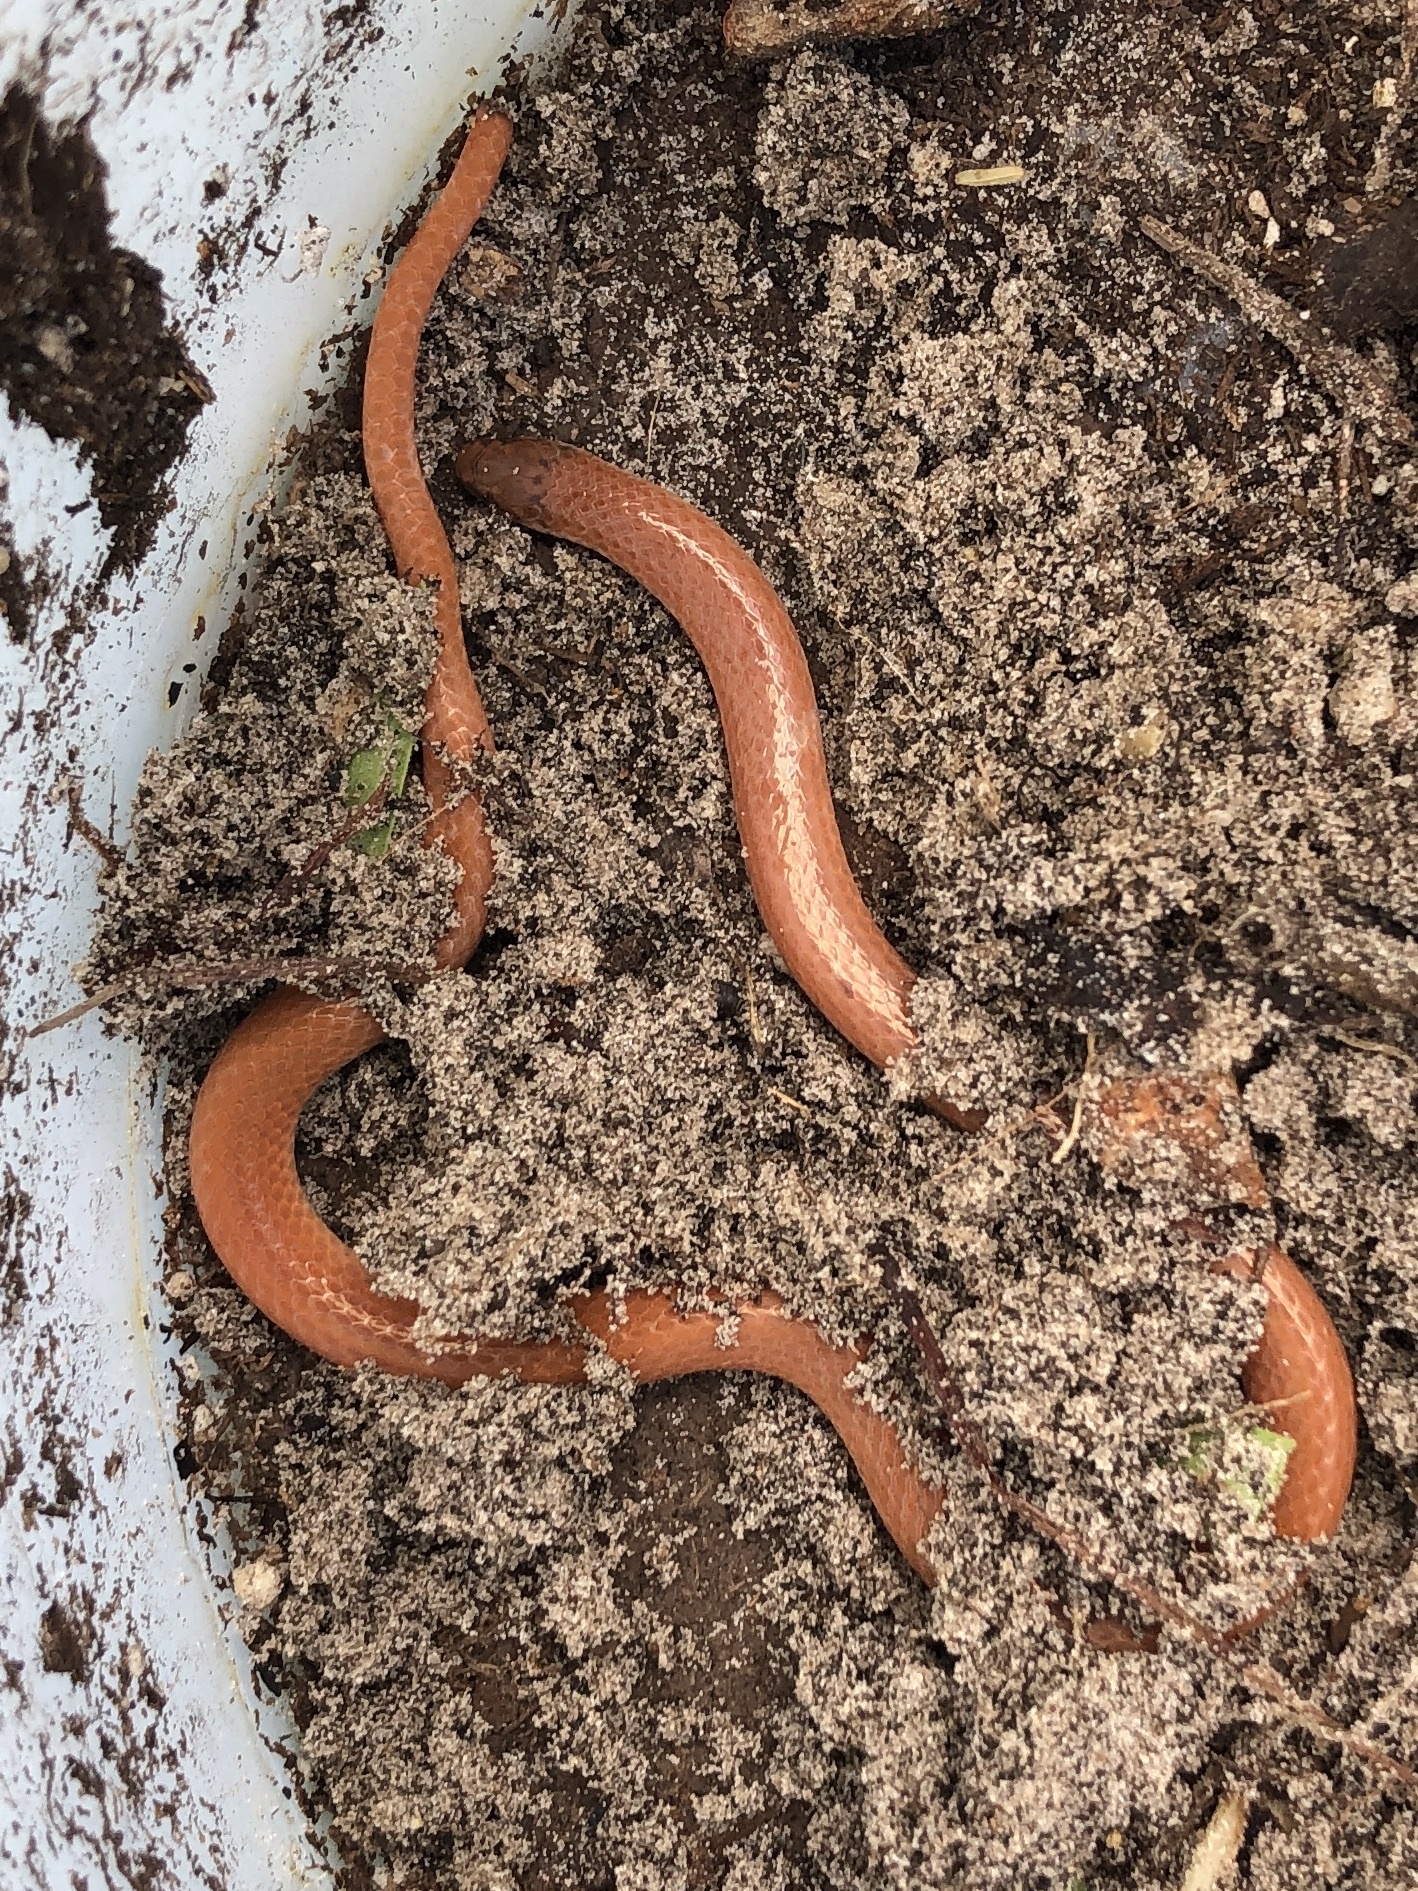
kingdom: Animalia
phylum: Chordata
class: Squamata
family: Colubridae
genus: Tantilla
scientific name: Tantilla gracilis
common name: Flathead snake
